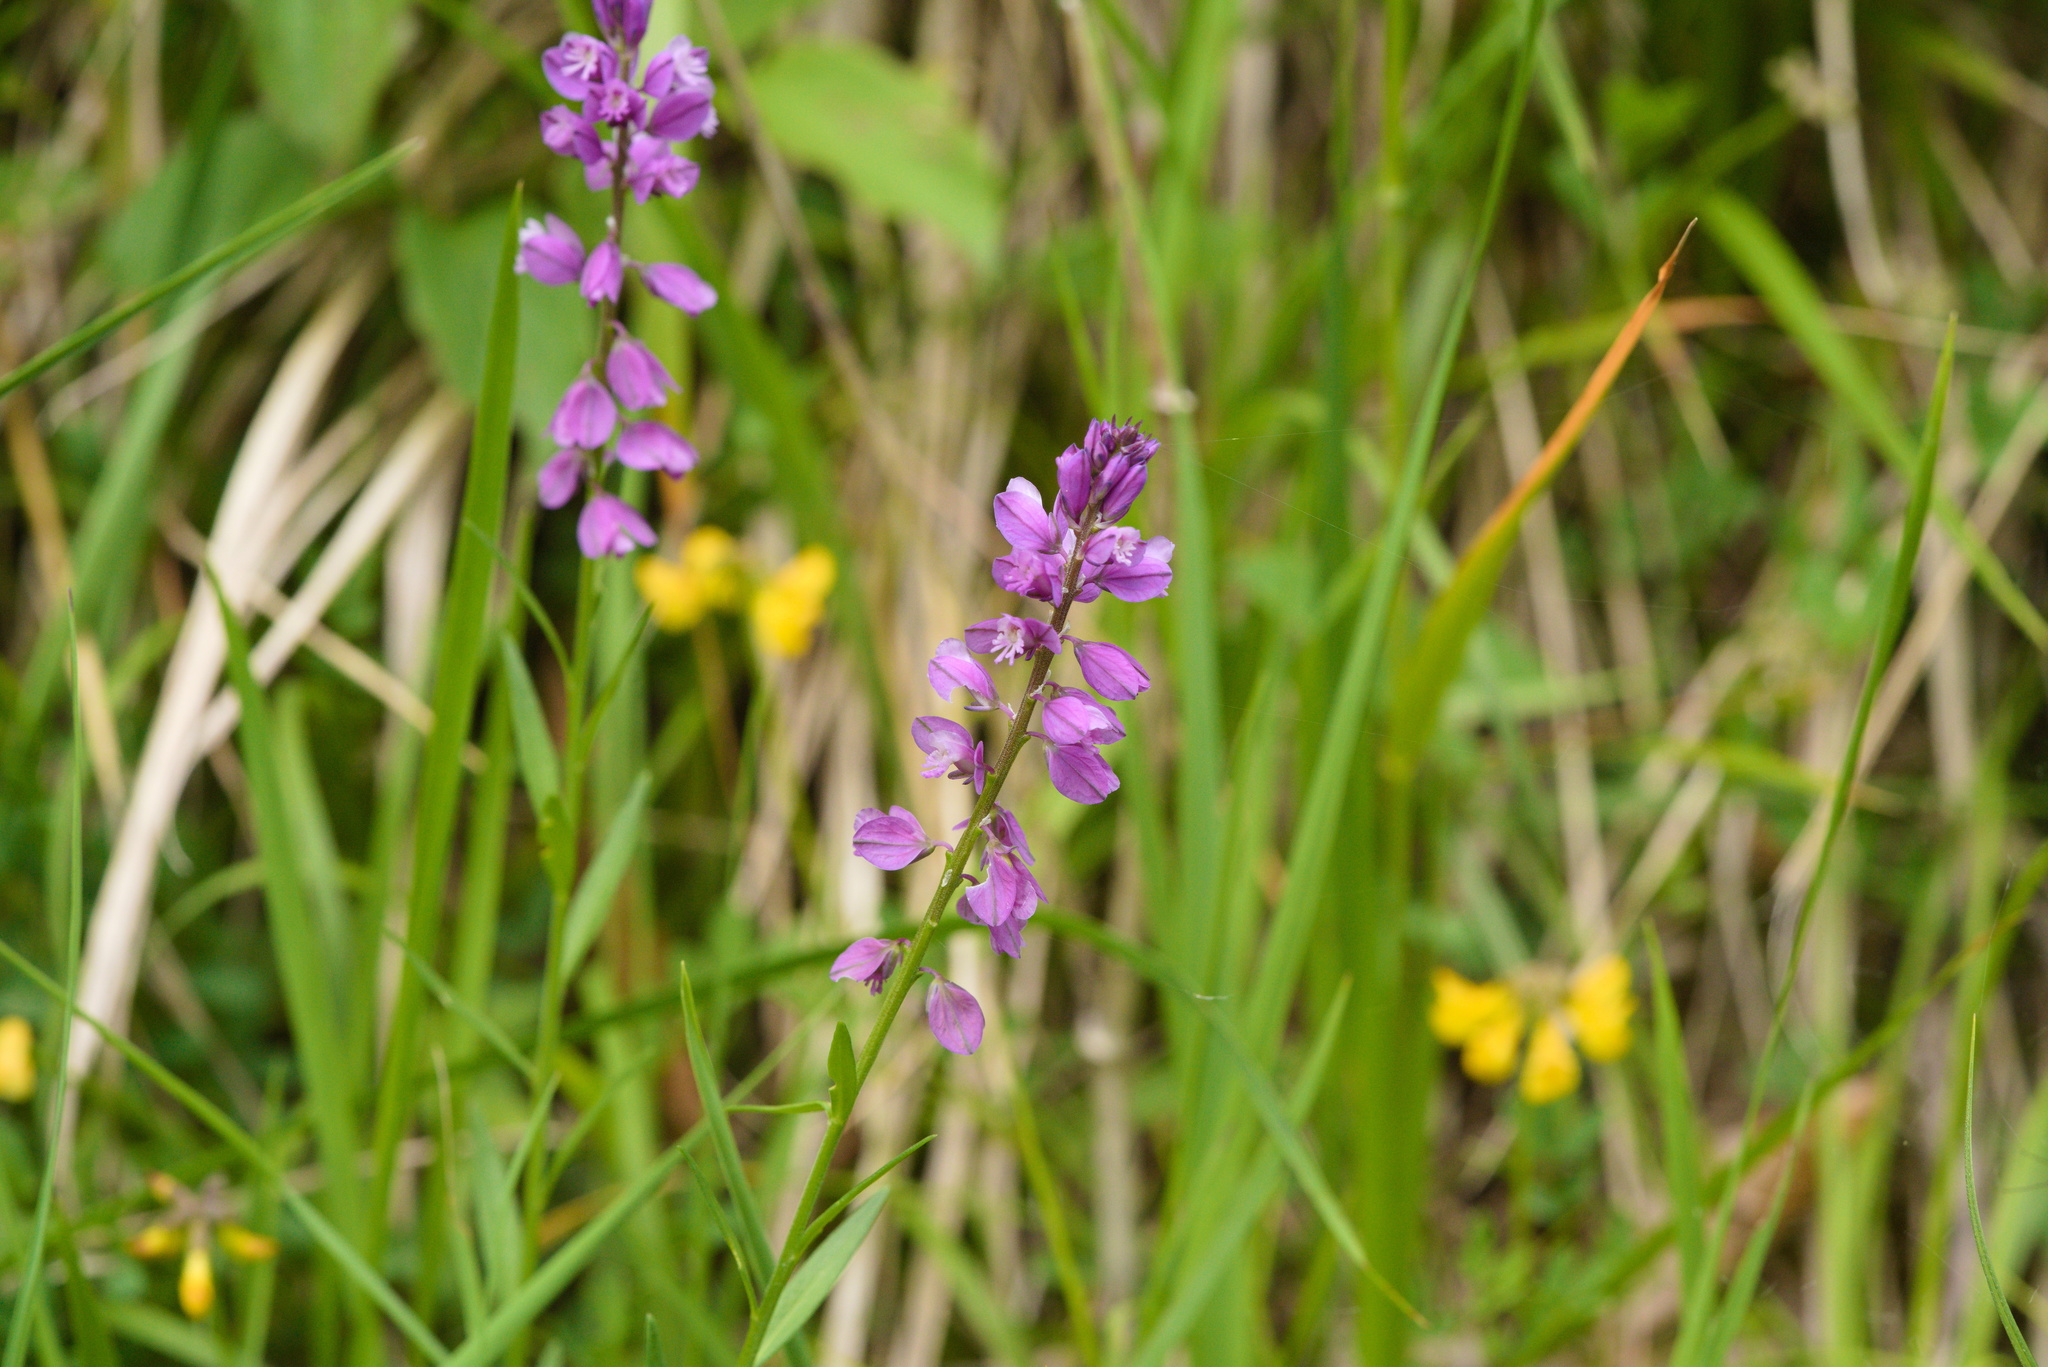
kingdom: Plantae
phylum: Tracheophyta
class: Magnoliopsida
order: Fabales
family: Polygalaceae
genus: Polygala
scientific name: Polygala comosa
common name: Tufted milkwort
